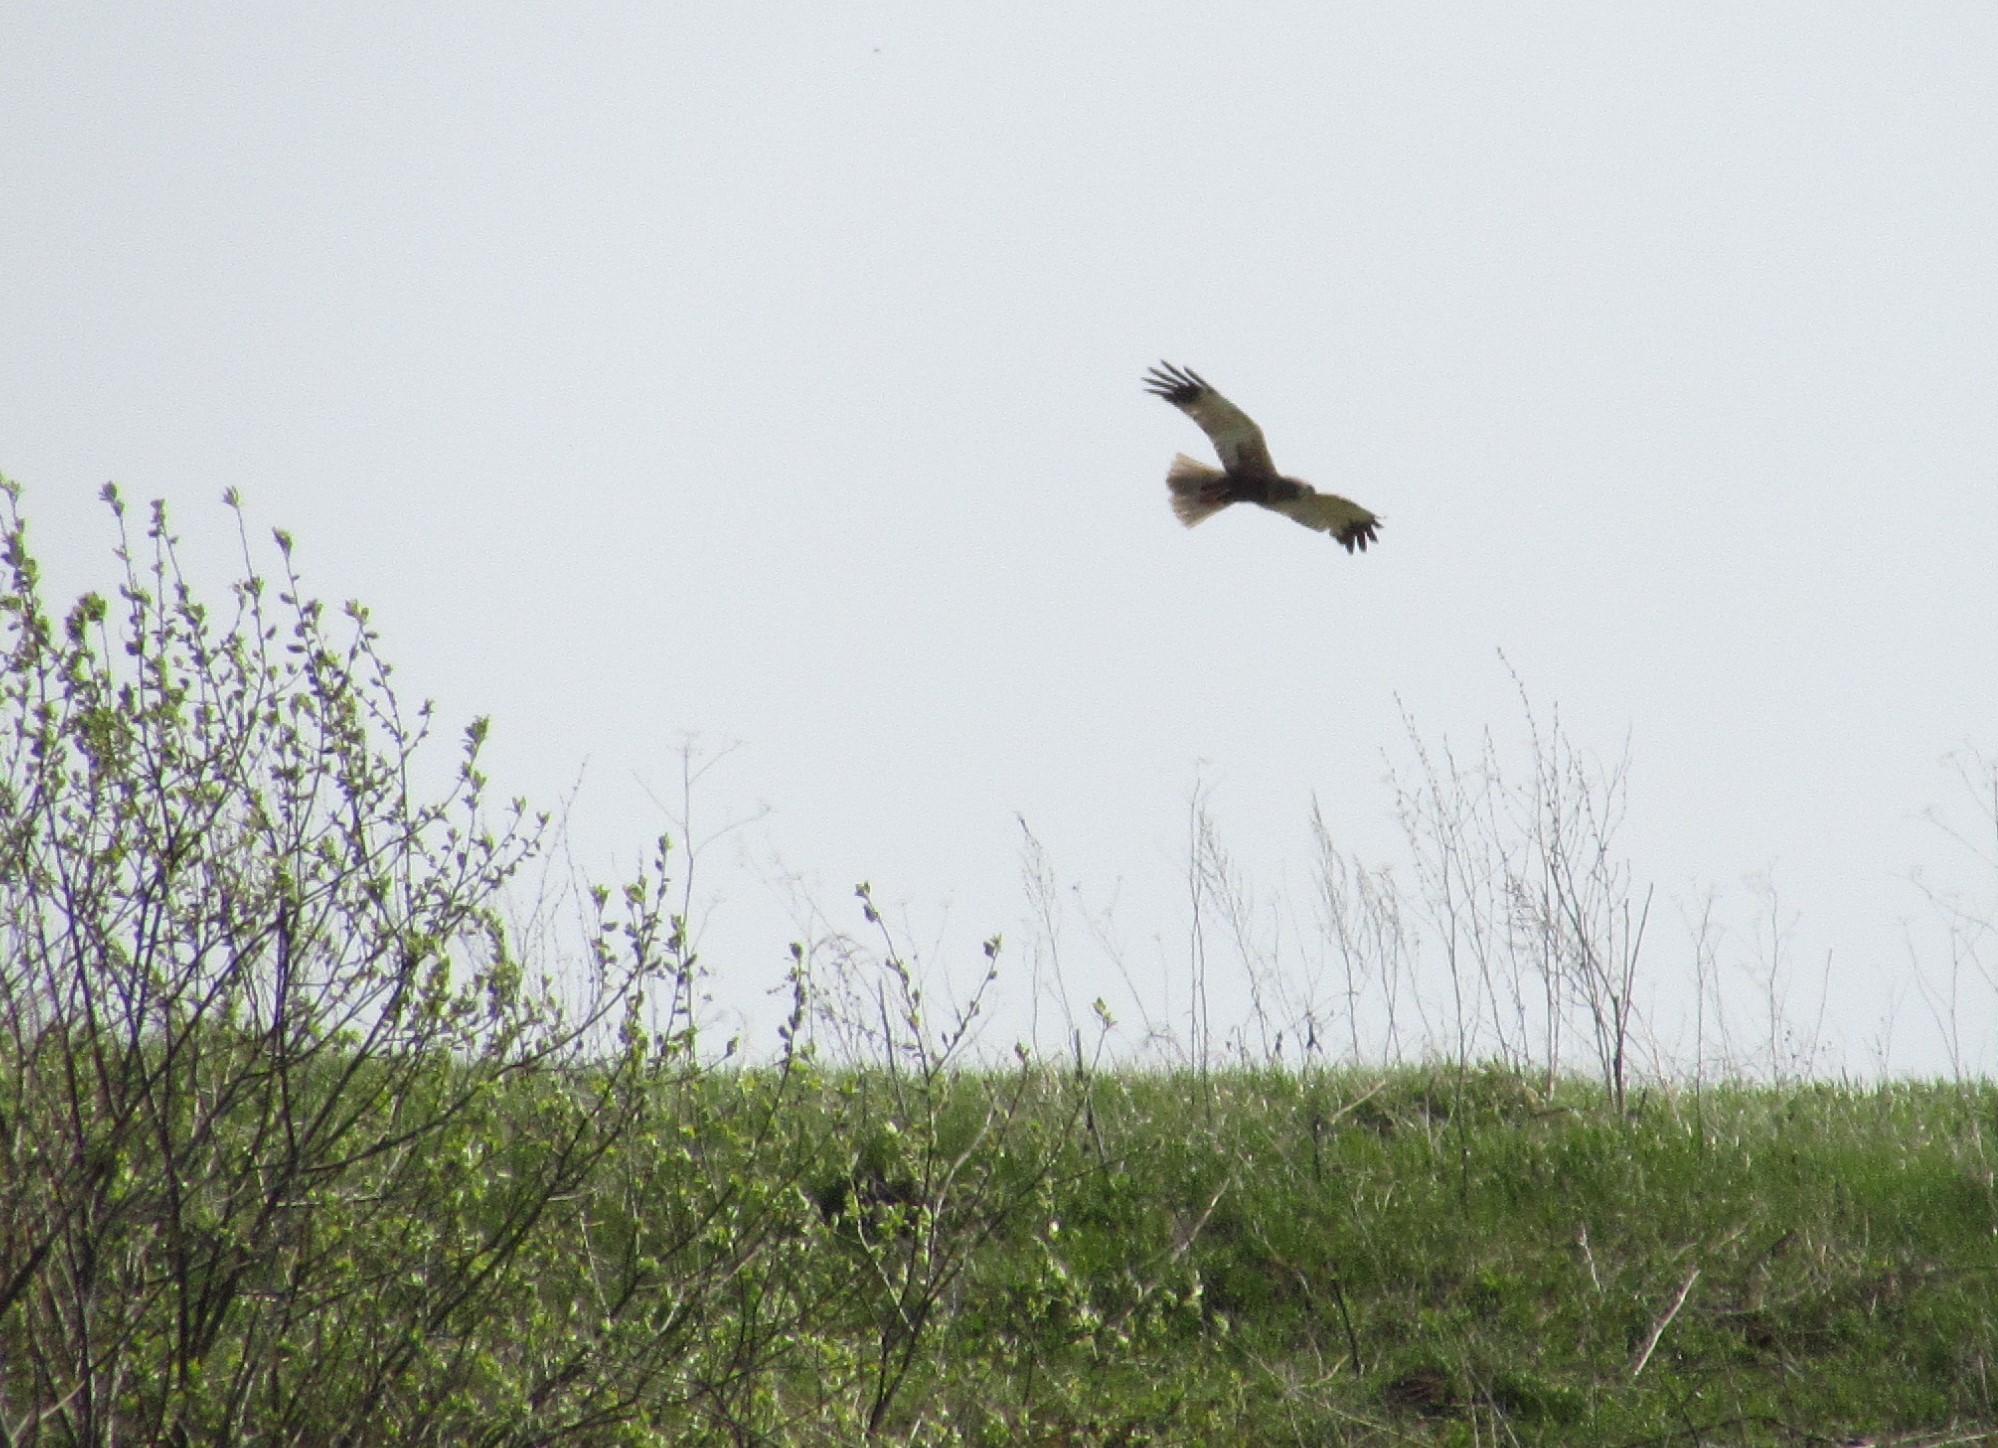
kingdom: Animalia
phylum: Chordata
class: Aves
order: Accipitriformes
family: Accipitridae
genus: Circus
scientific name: Circus aeruginosus
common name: Western marsh harrier
